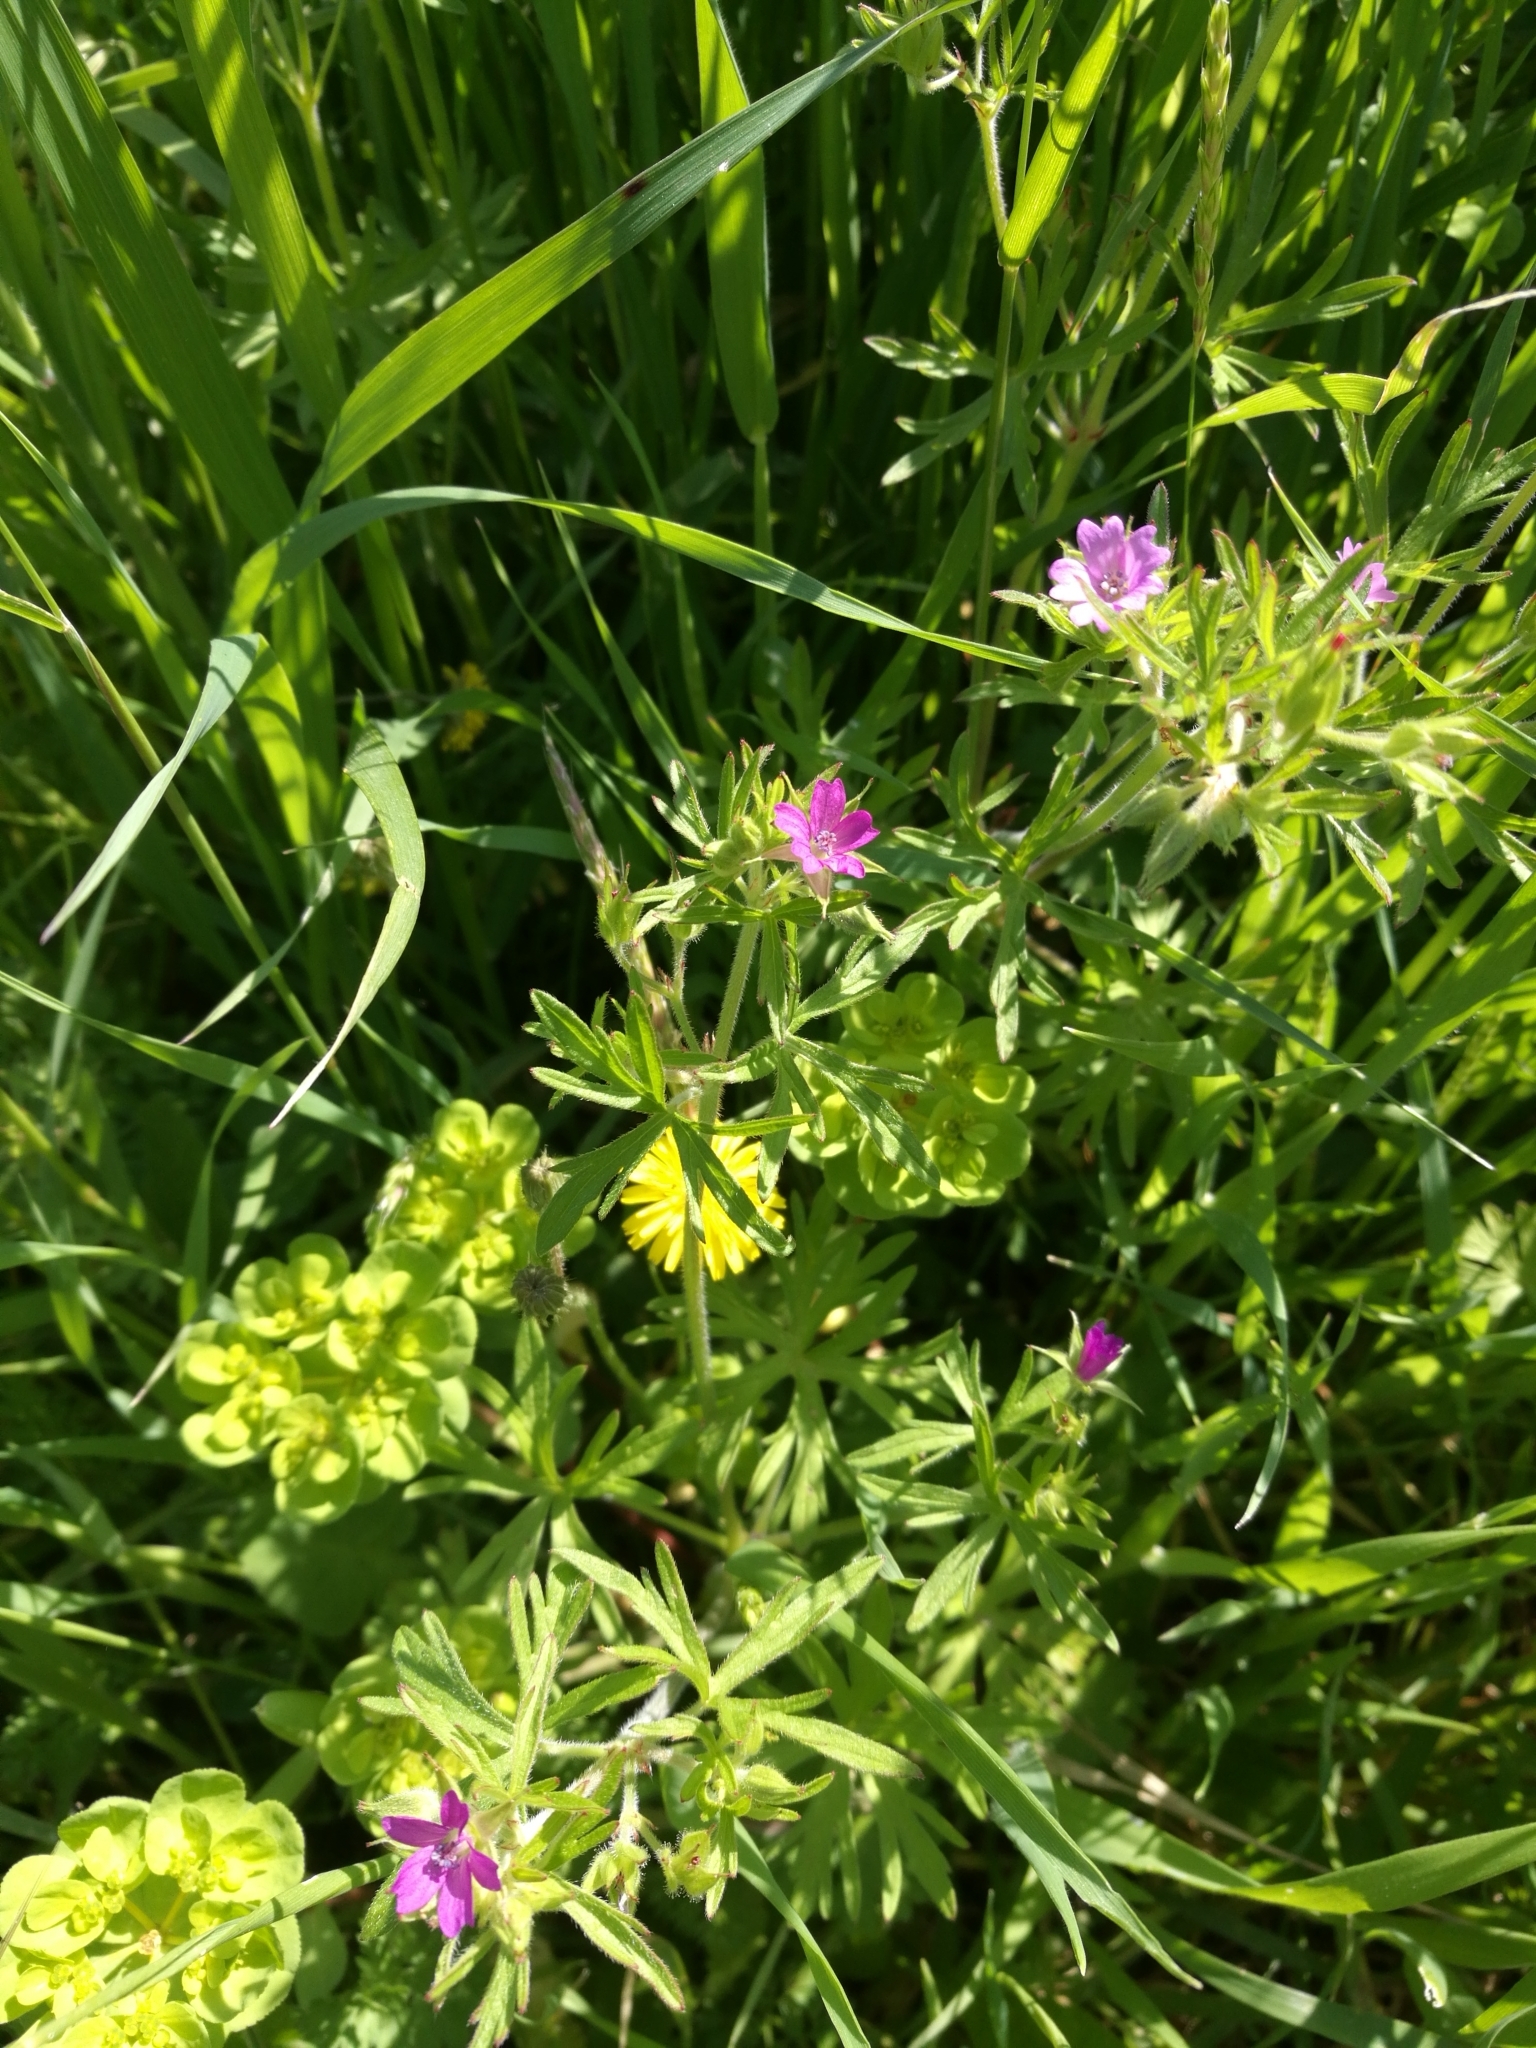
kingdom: Plantae
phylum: Tracheophyta
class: Magnoliopsida
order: Geraniales
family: Geraniaceae
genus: Geranium
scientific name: Geranium dissectum
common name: Cut-leaved crane's-bill
